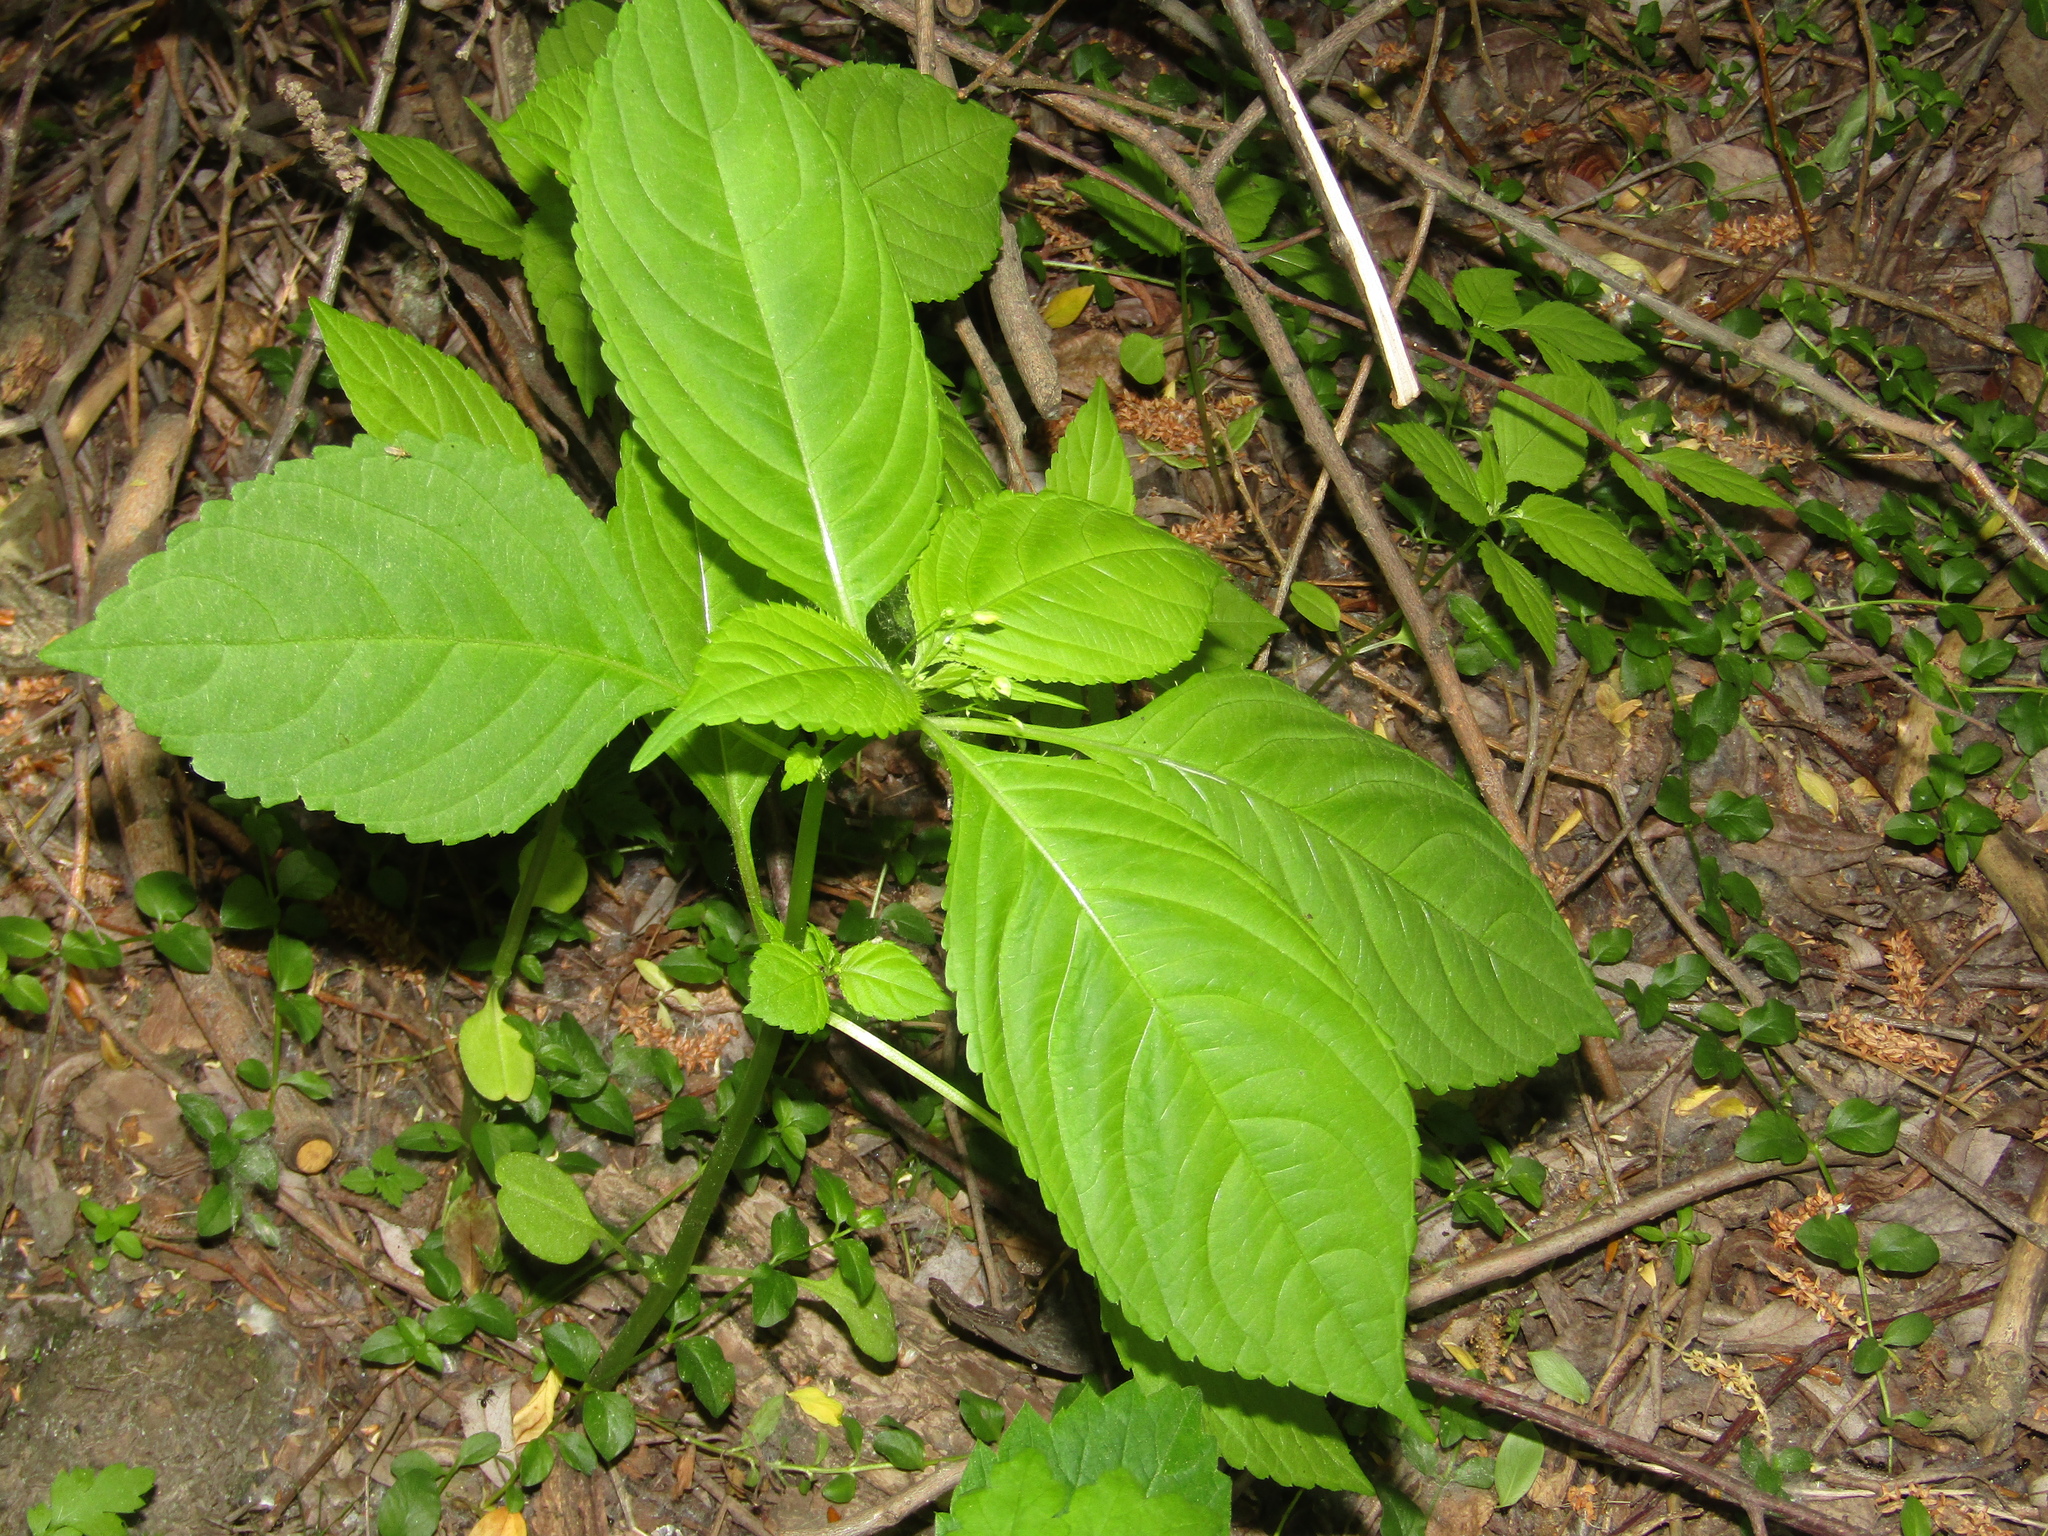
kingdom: Plantae
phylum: Tracheophyta
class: Magnoliopsida
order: Ericales
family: Balsaminaceae
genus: Impatiens
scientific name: Impatiens parviflora
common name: Small balsam
